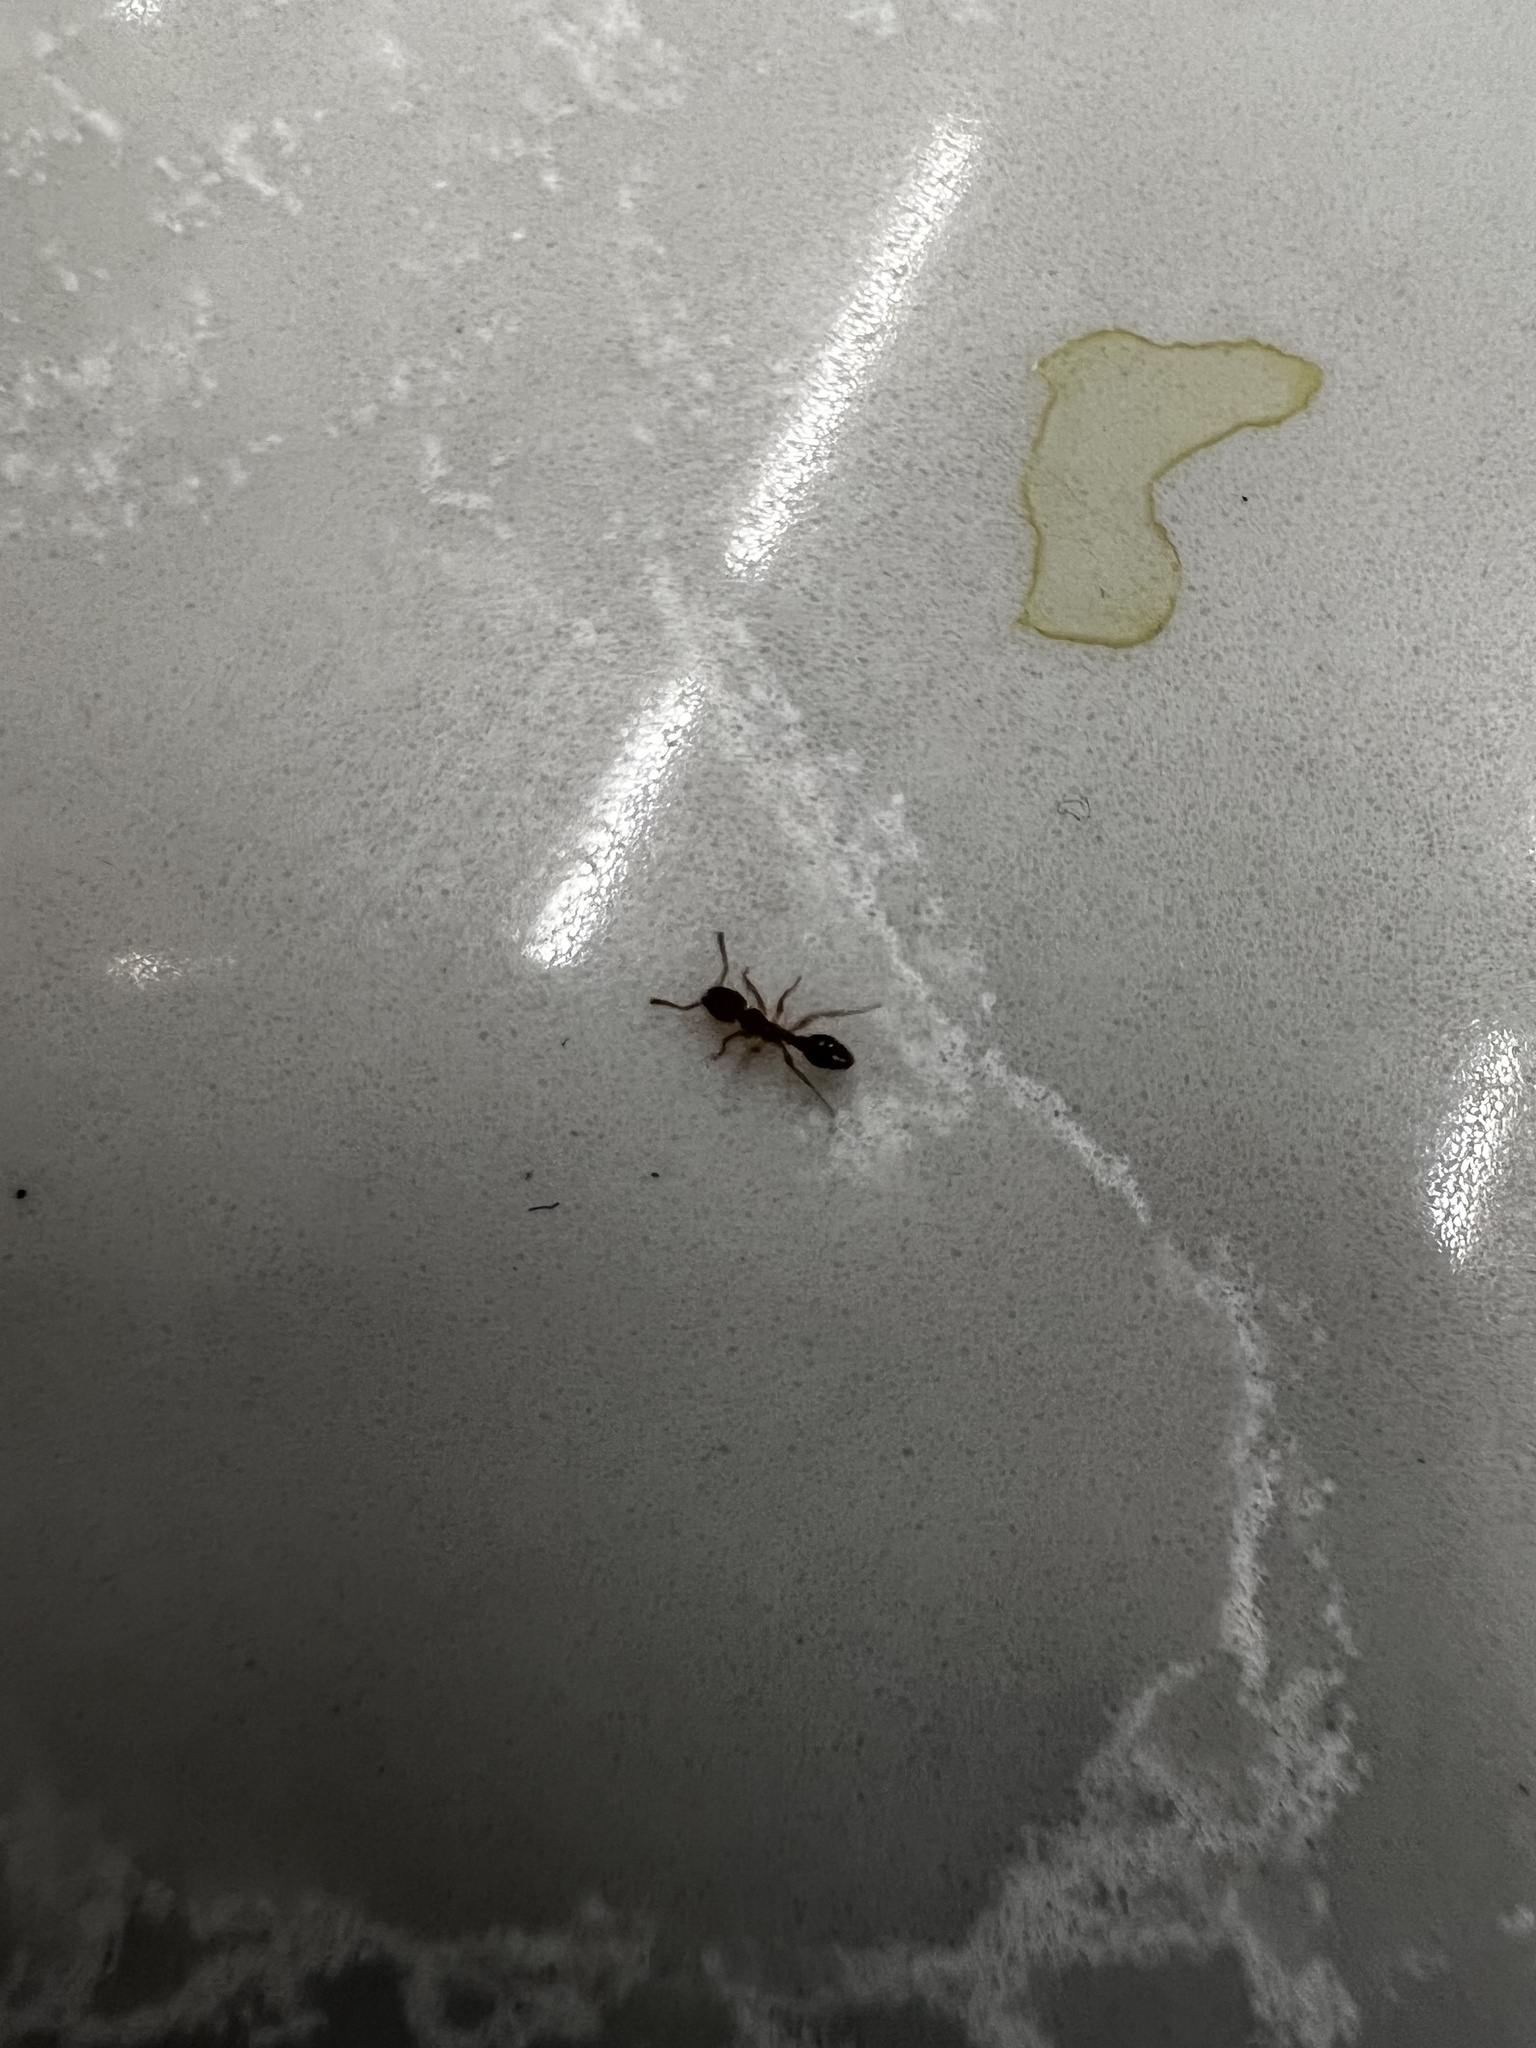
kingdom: Animalia
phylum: Arthropoda
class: Insecta
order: Hymenoptera
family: Formicidae
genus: Tetramorium
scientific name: Tetramorium bicarinatum
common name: Guinea ant
